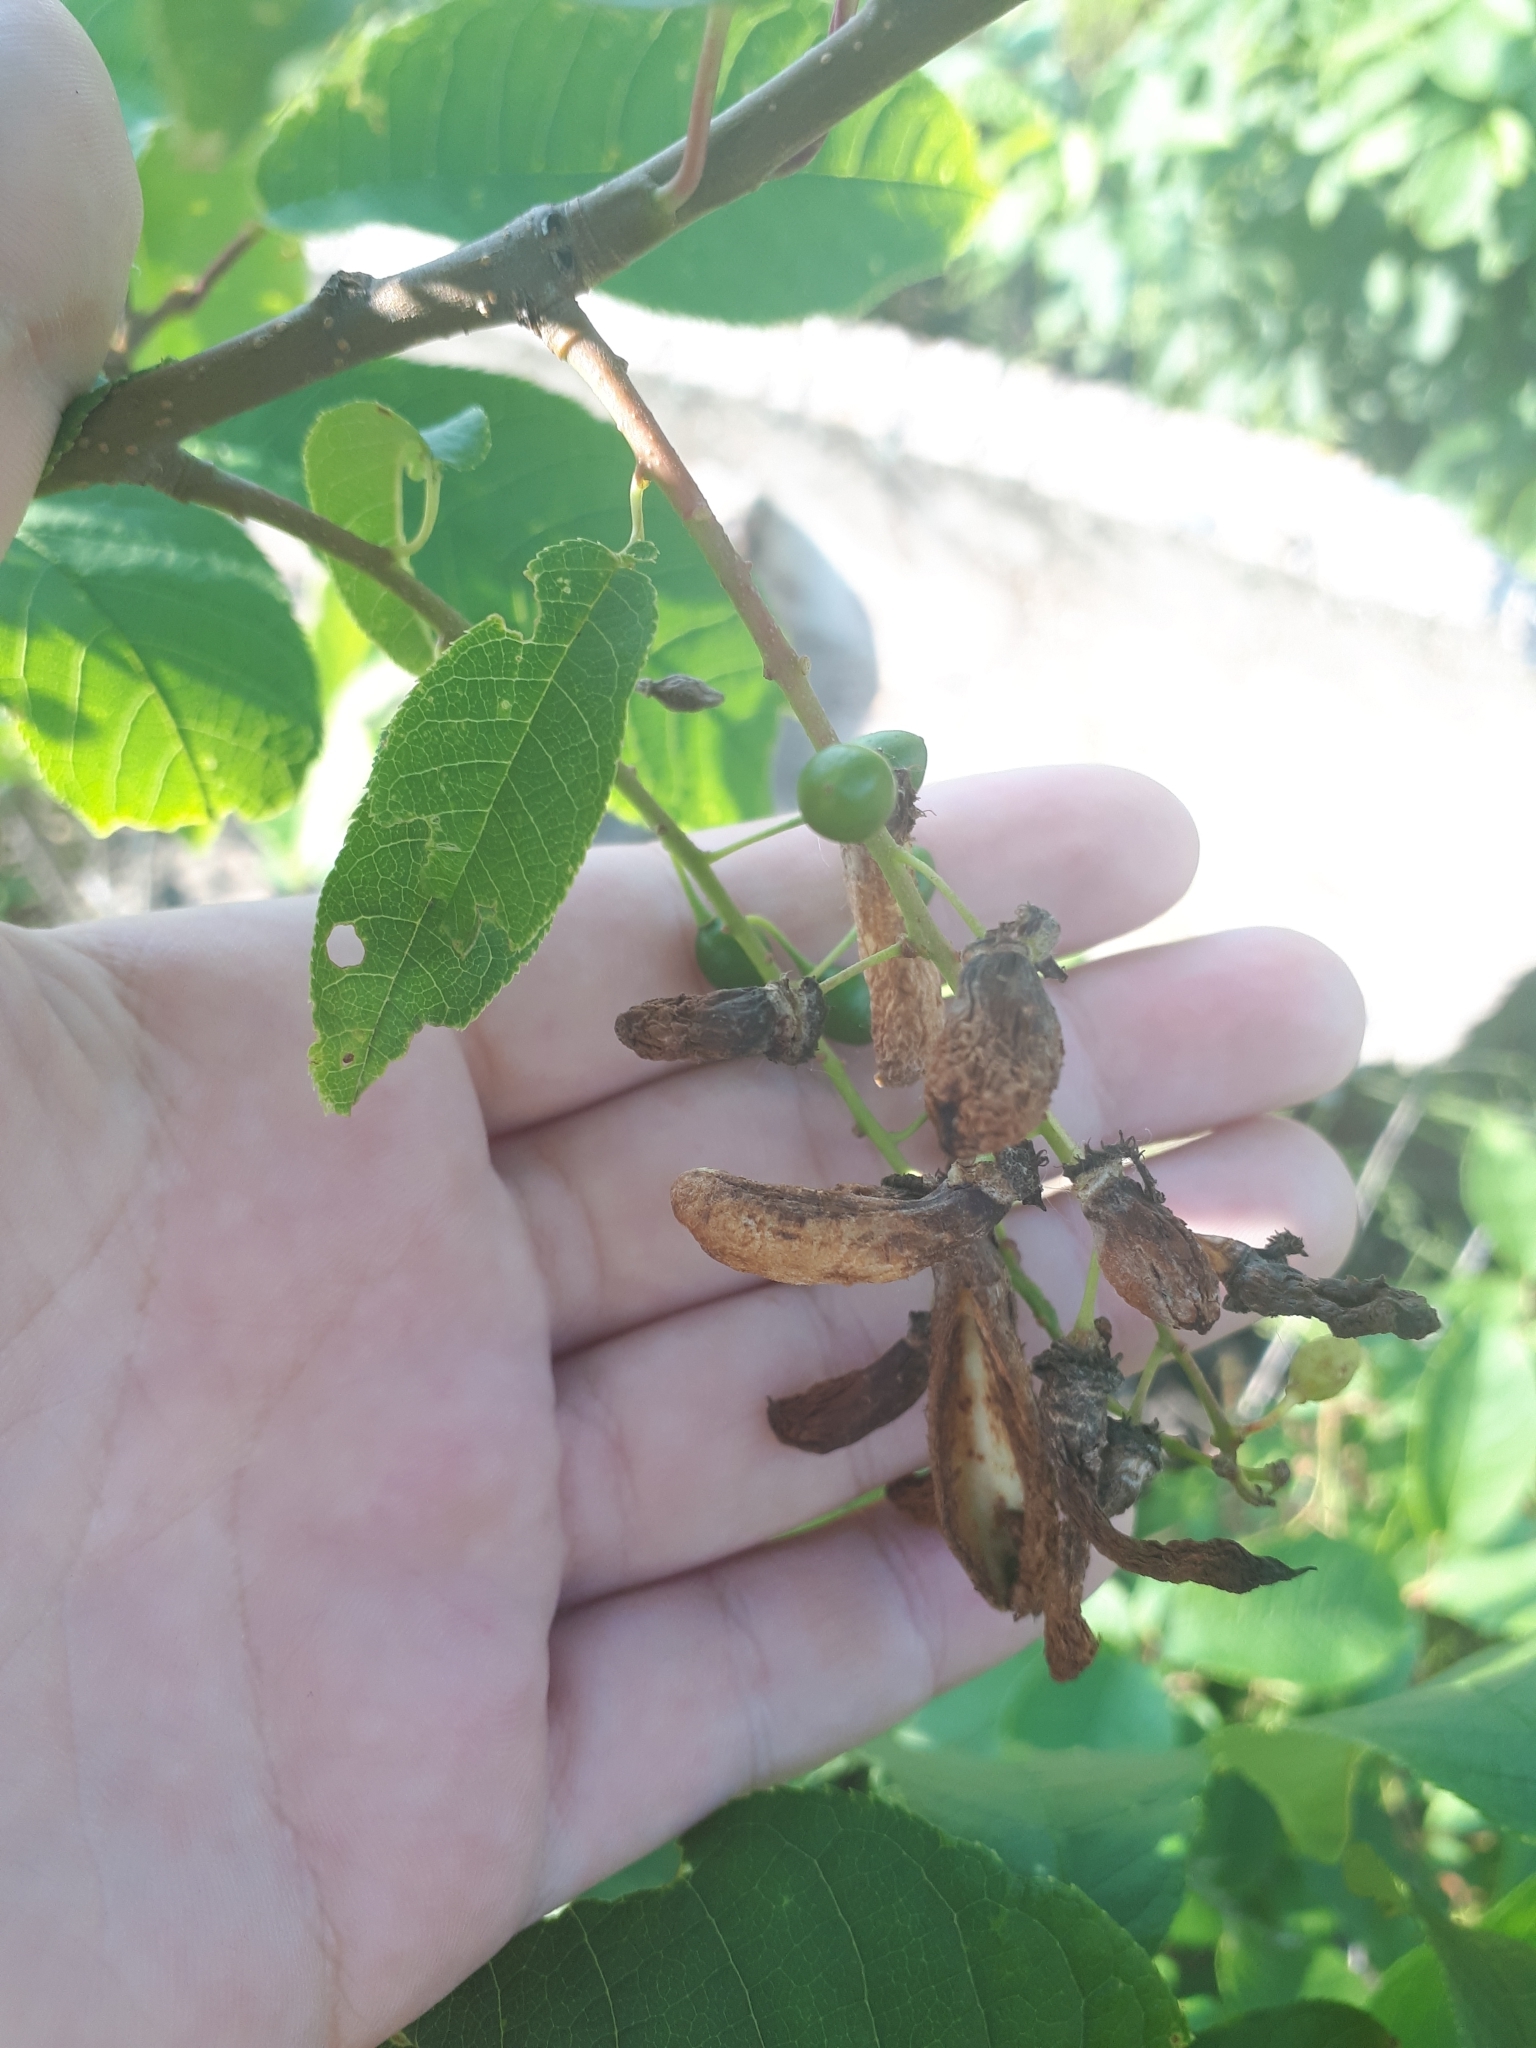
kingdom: Fungi
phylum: Ascomycota
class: Taphrinomycetes
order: Taphrinales
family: Taphrinaceae
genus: Taphrina
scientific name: Taphrina pruni
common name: Pocket plum
